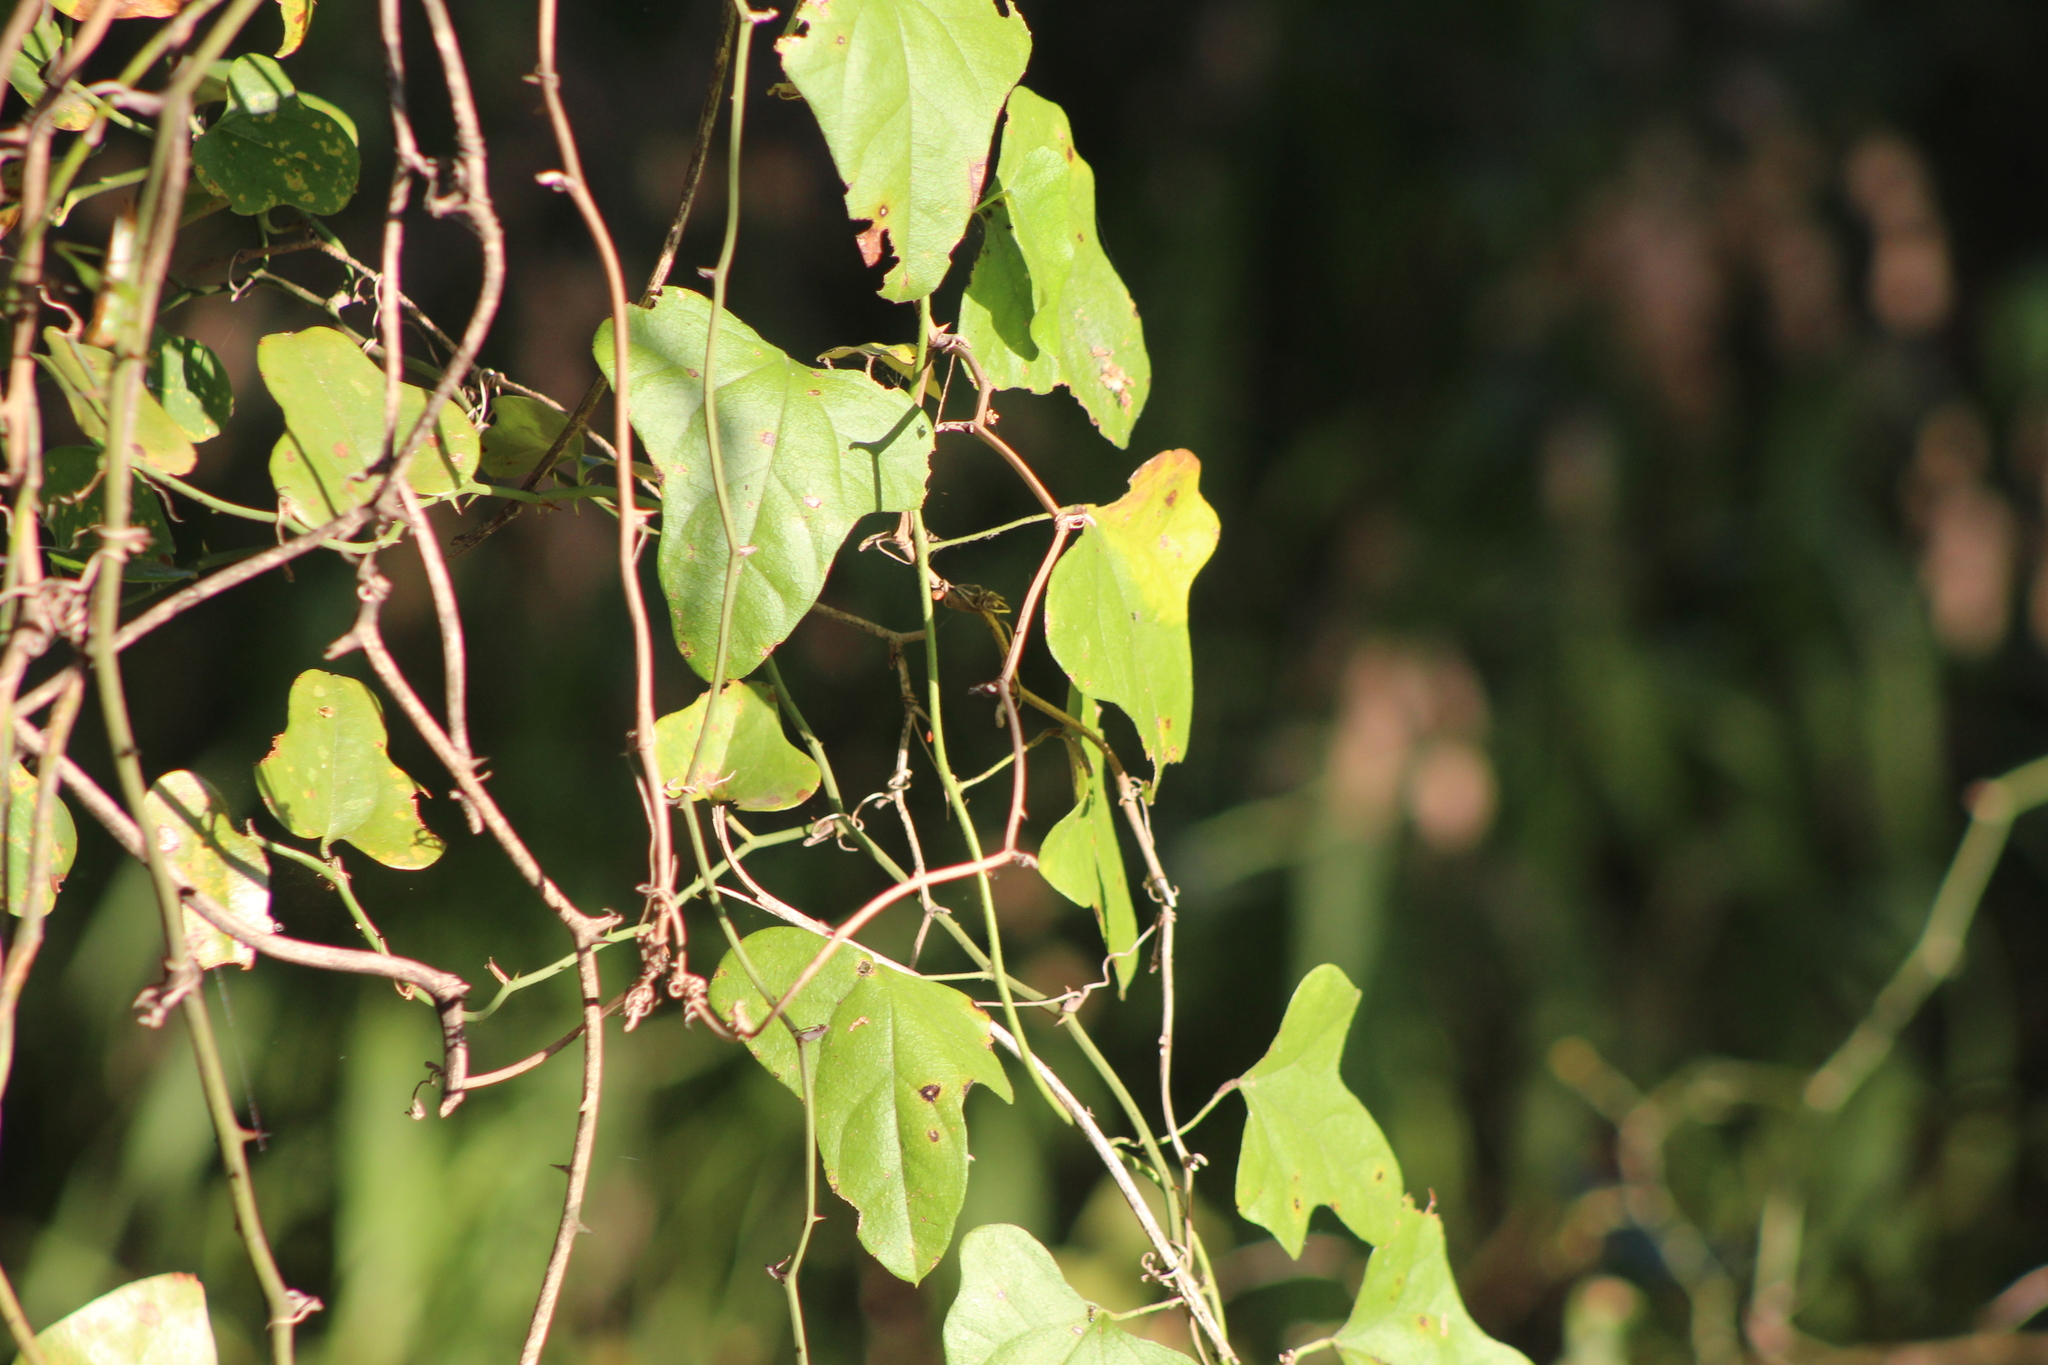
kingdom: Plantae
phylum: Tracheophyta
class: Magnoliopsida
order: Ranunculales
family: Menispermaceae
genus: Cocculus
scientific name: Cocculus carolinus
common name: Carolina moonseed
